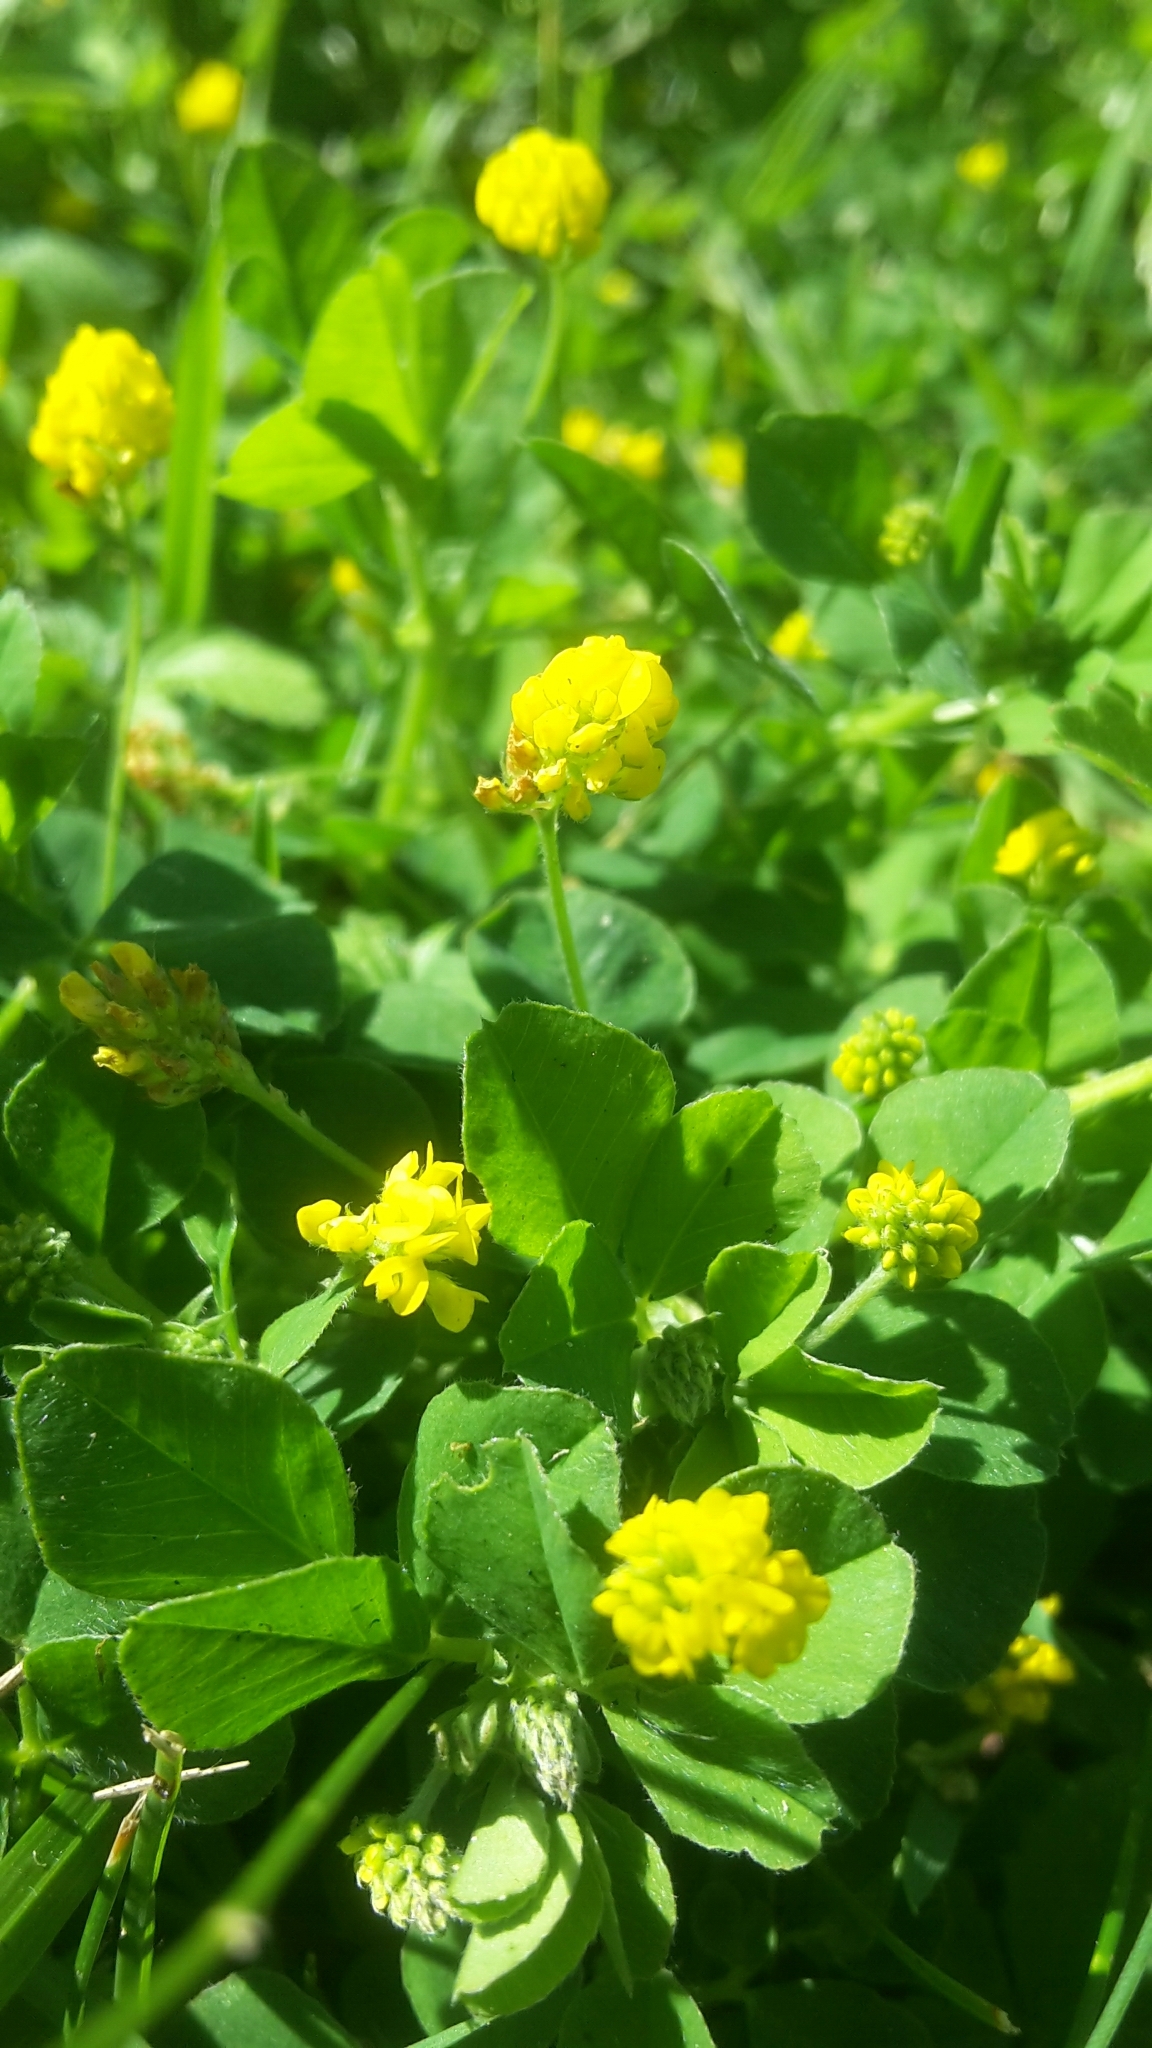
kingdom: Plantae
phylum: Tracheophyta
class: Magnoliopsida
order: Fabales
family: Fabaceae
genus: Medicago
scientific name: Medicago lupulina
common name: Black medick
